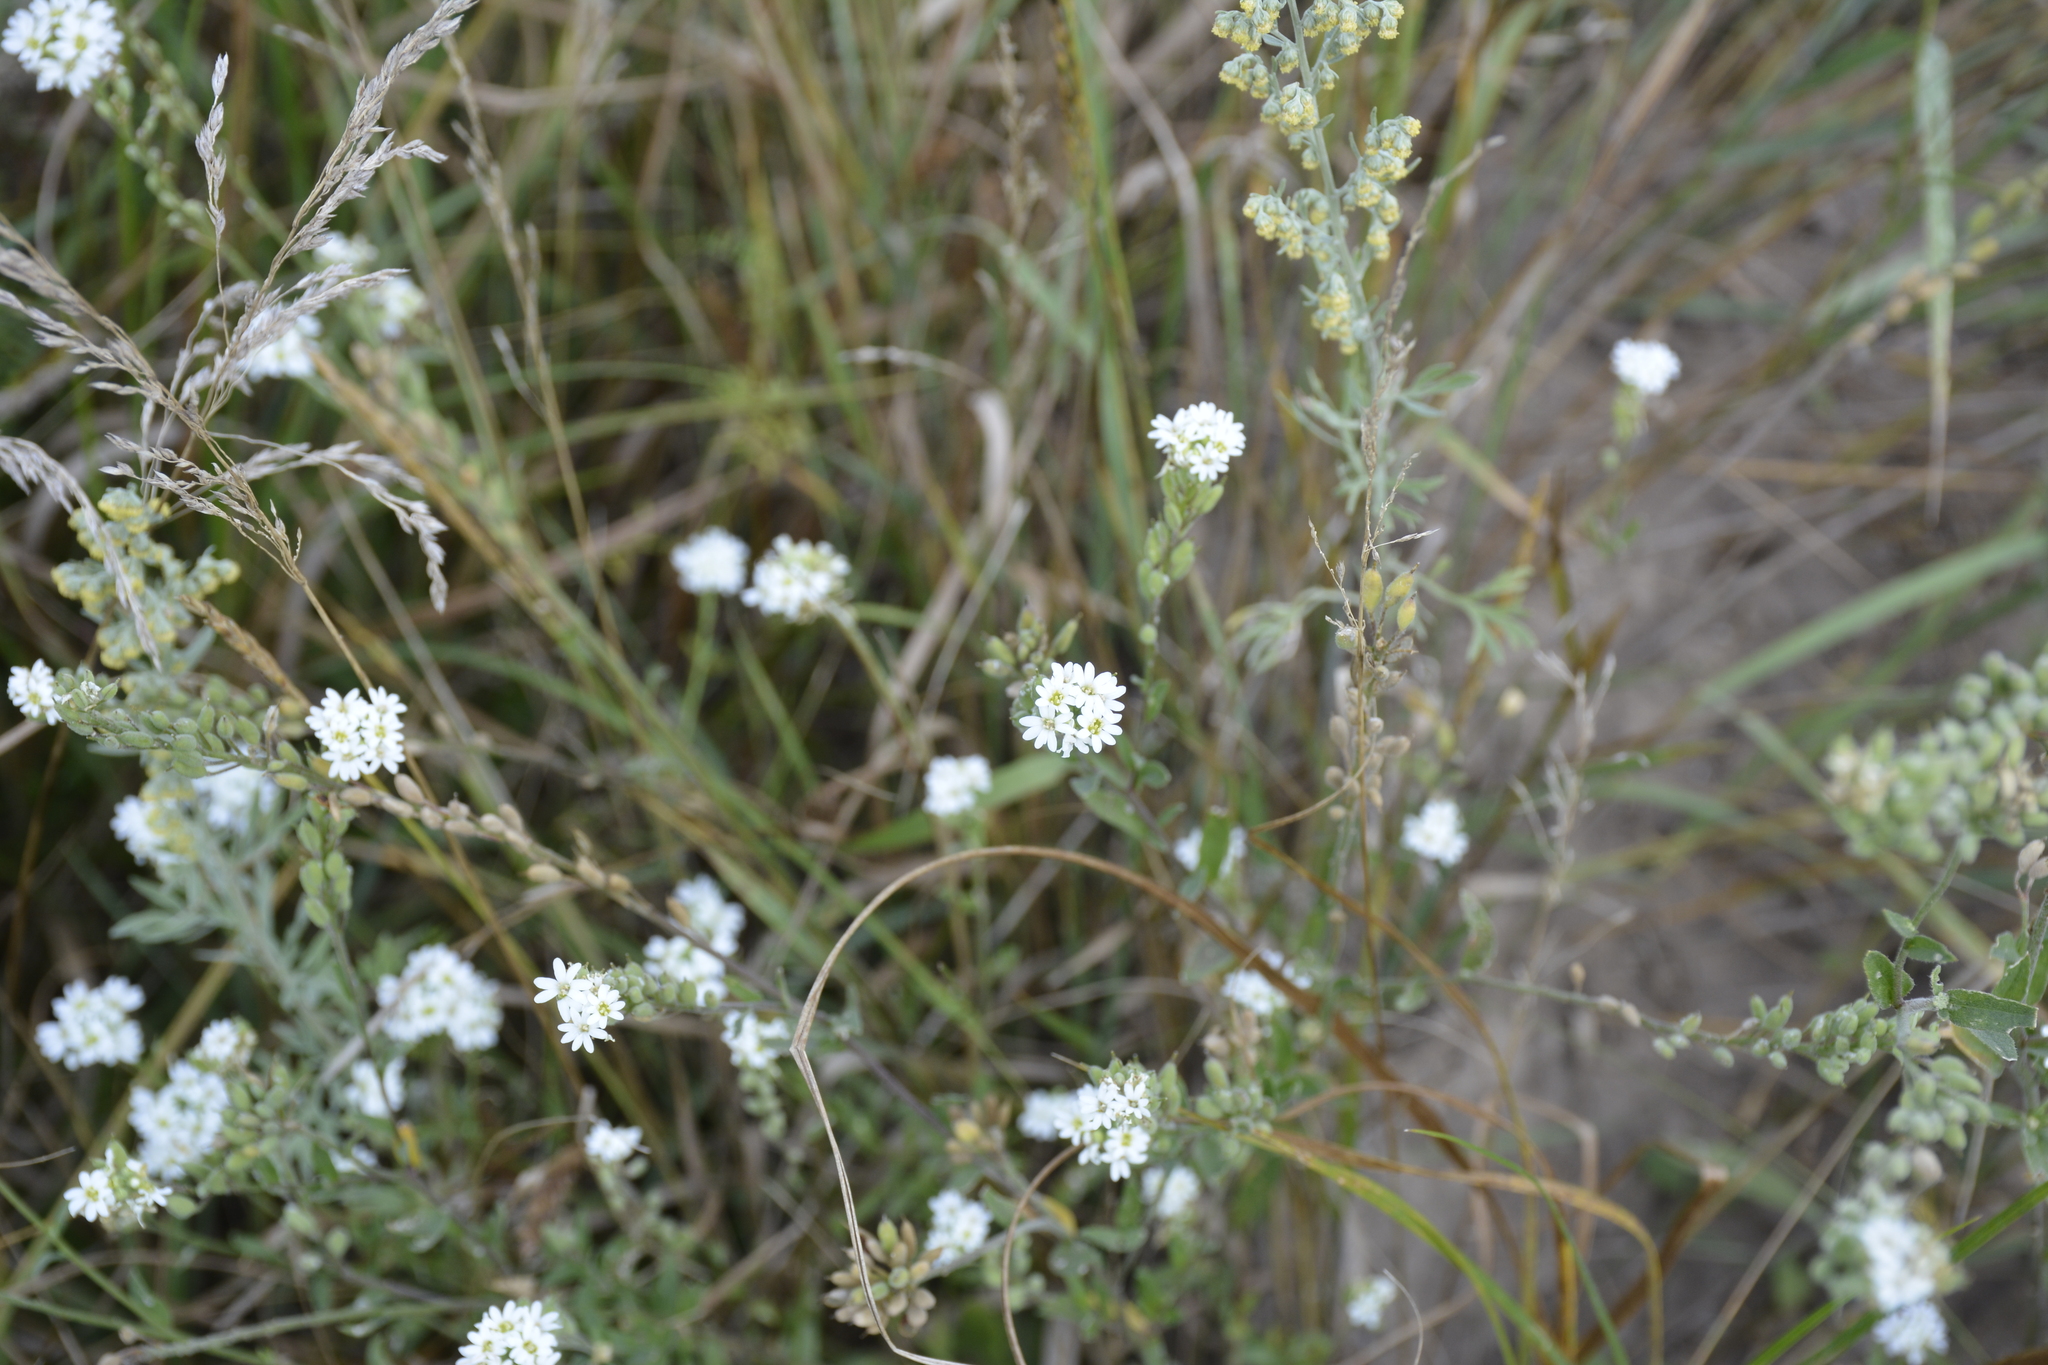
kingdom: Plantae
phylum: Tracheophyta
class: Magnoliopsida
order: Brassicales
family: Brassicaceae
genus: Berteroa
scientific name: Berteroa incana
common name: Hoary alison
